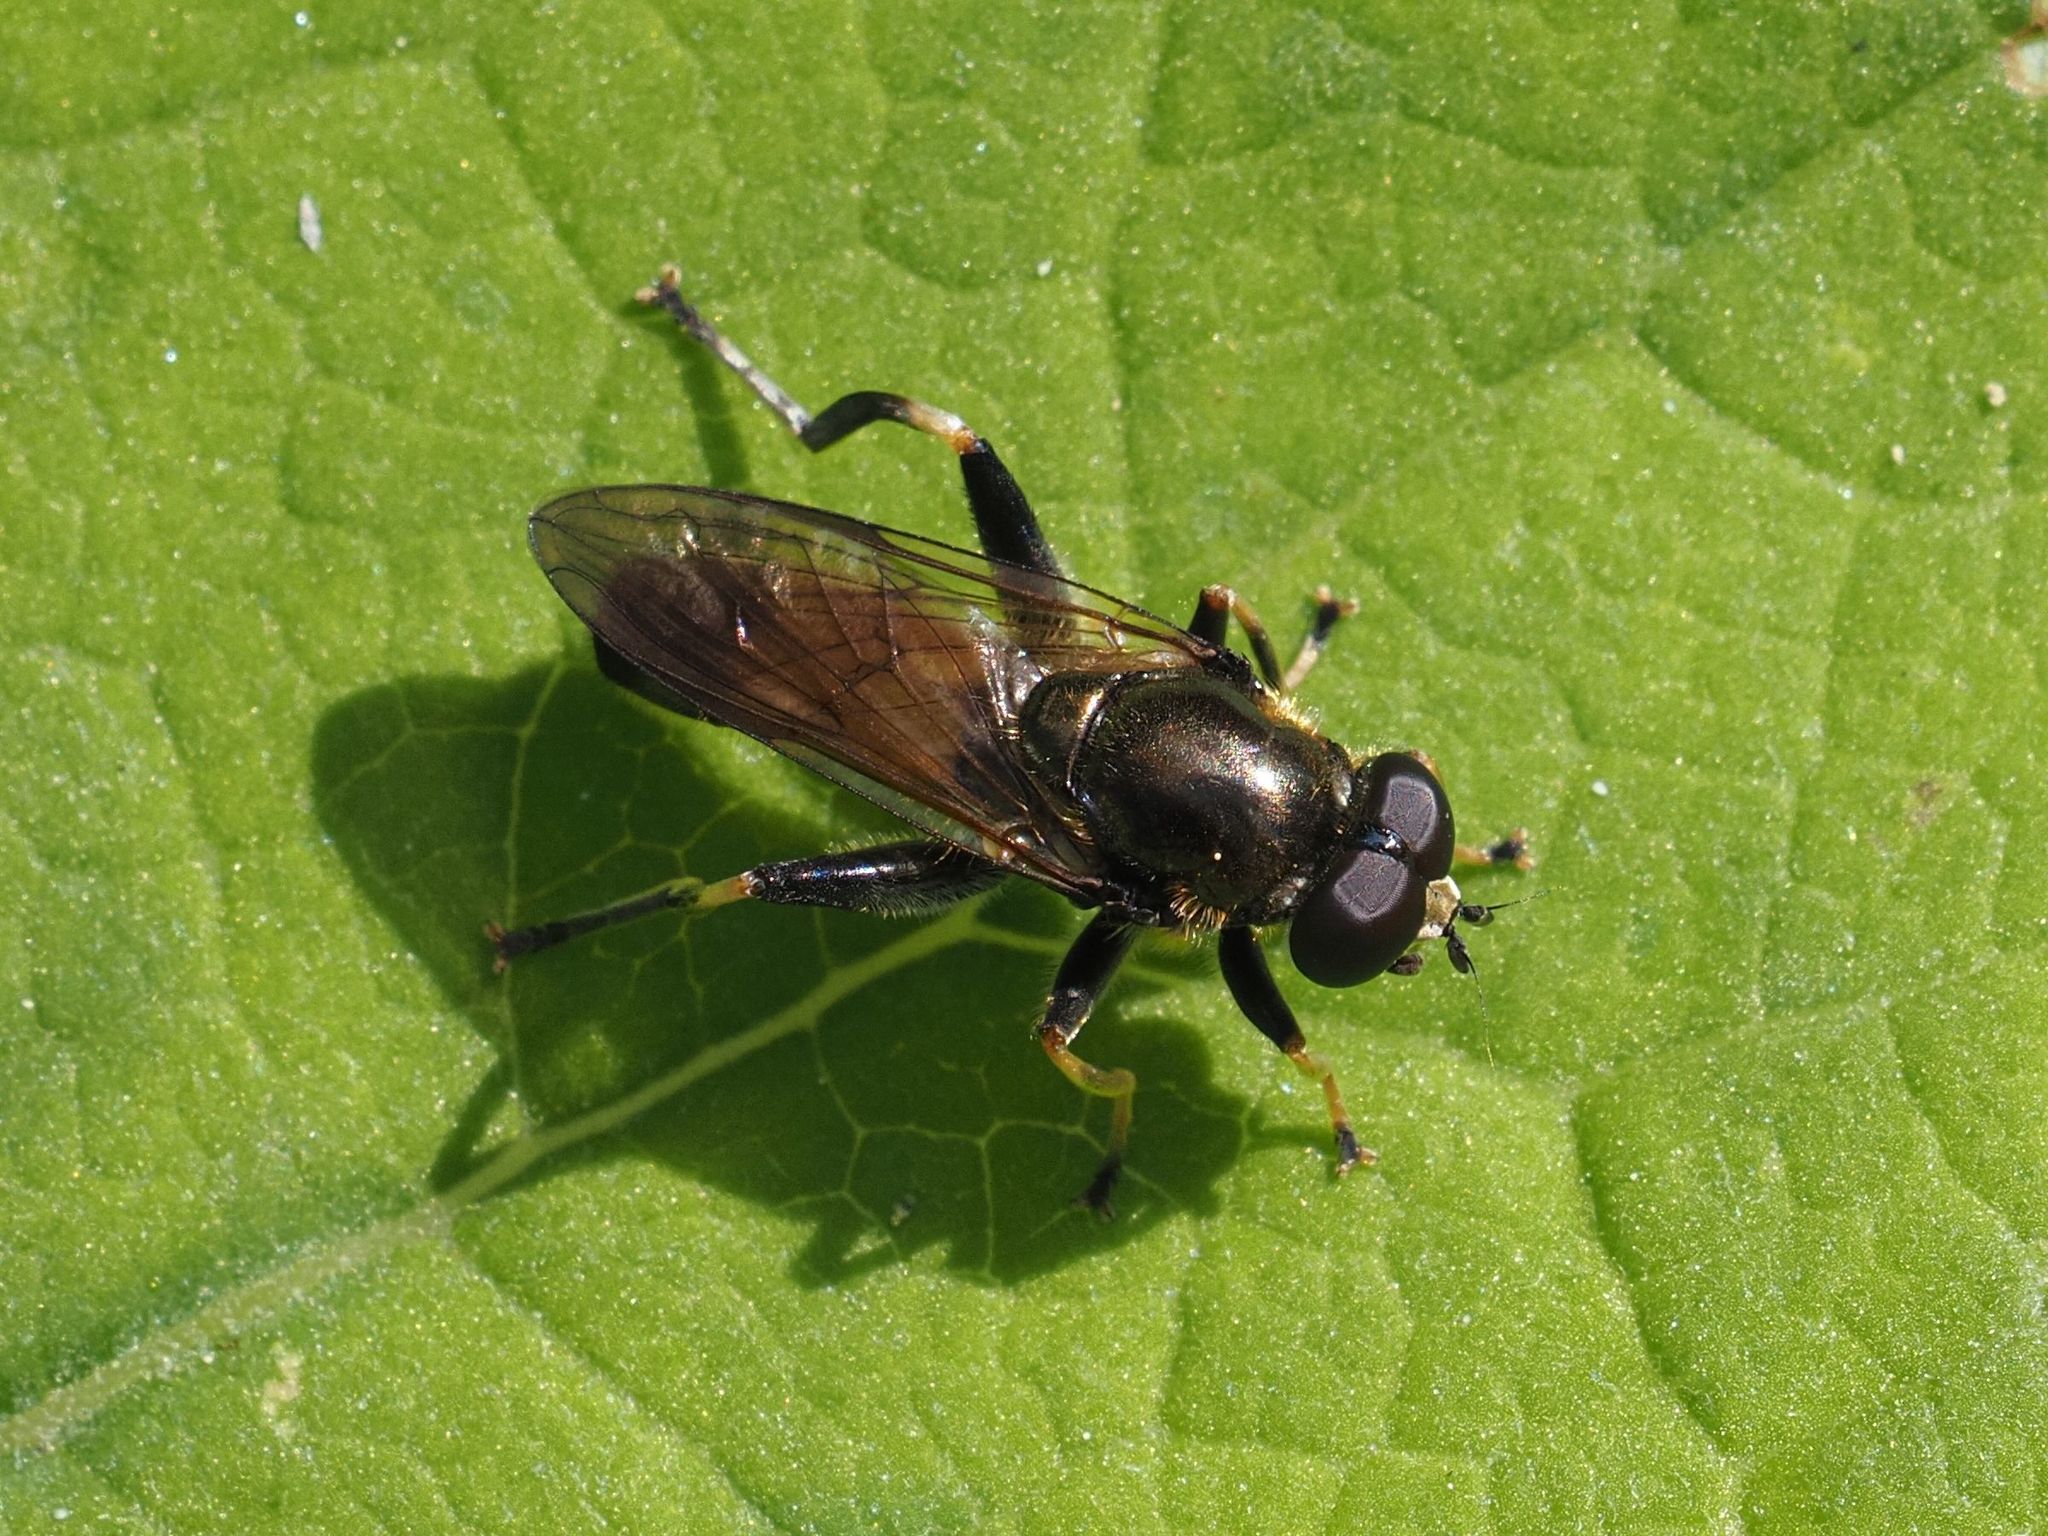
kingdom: Animalia
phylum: Arthropoda
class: Insecta
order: Diptera
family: Syrphidae
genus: Xylota
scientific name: Xylota segnis
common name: Brown-toed forest fly
